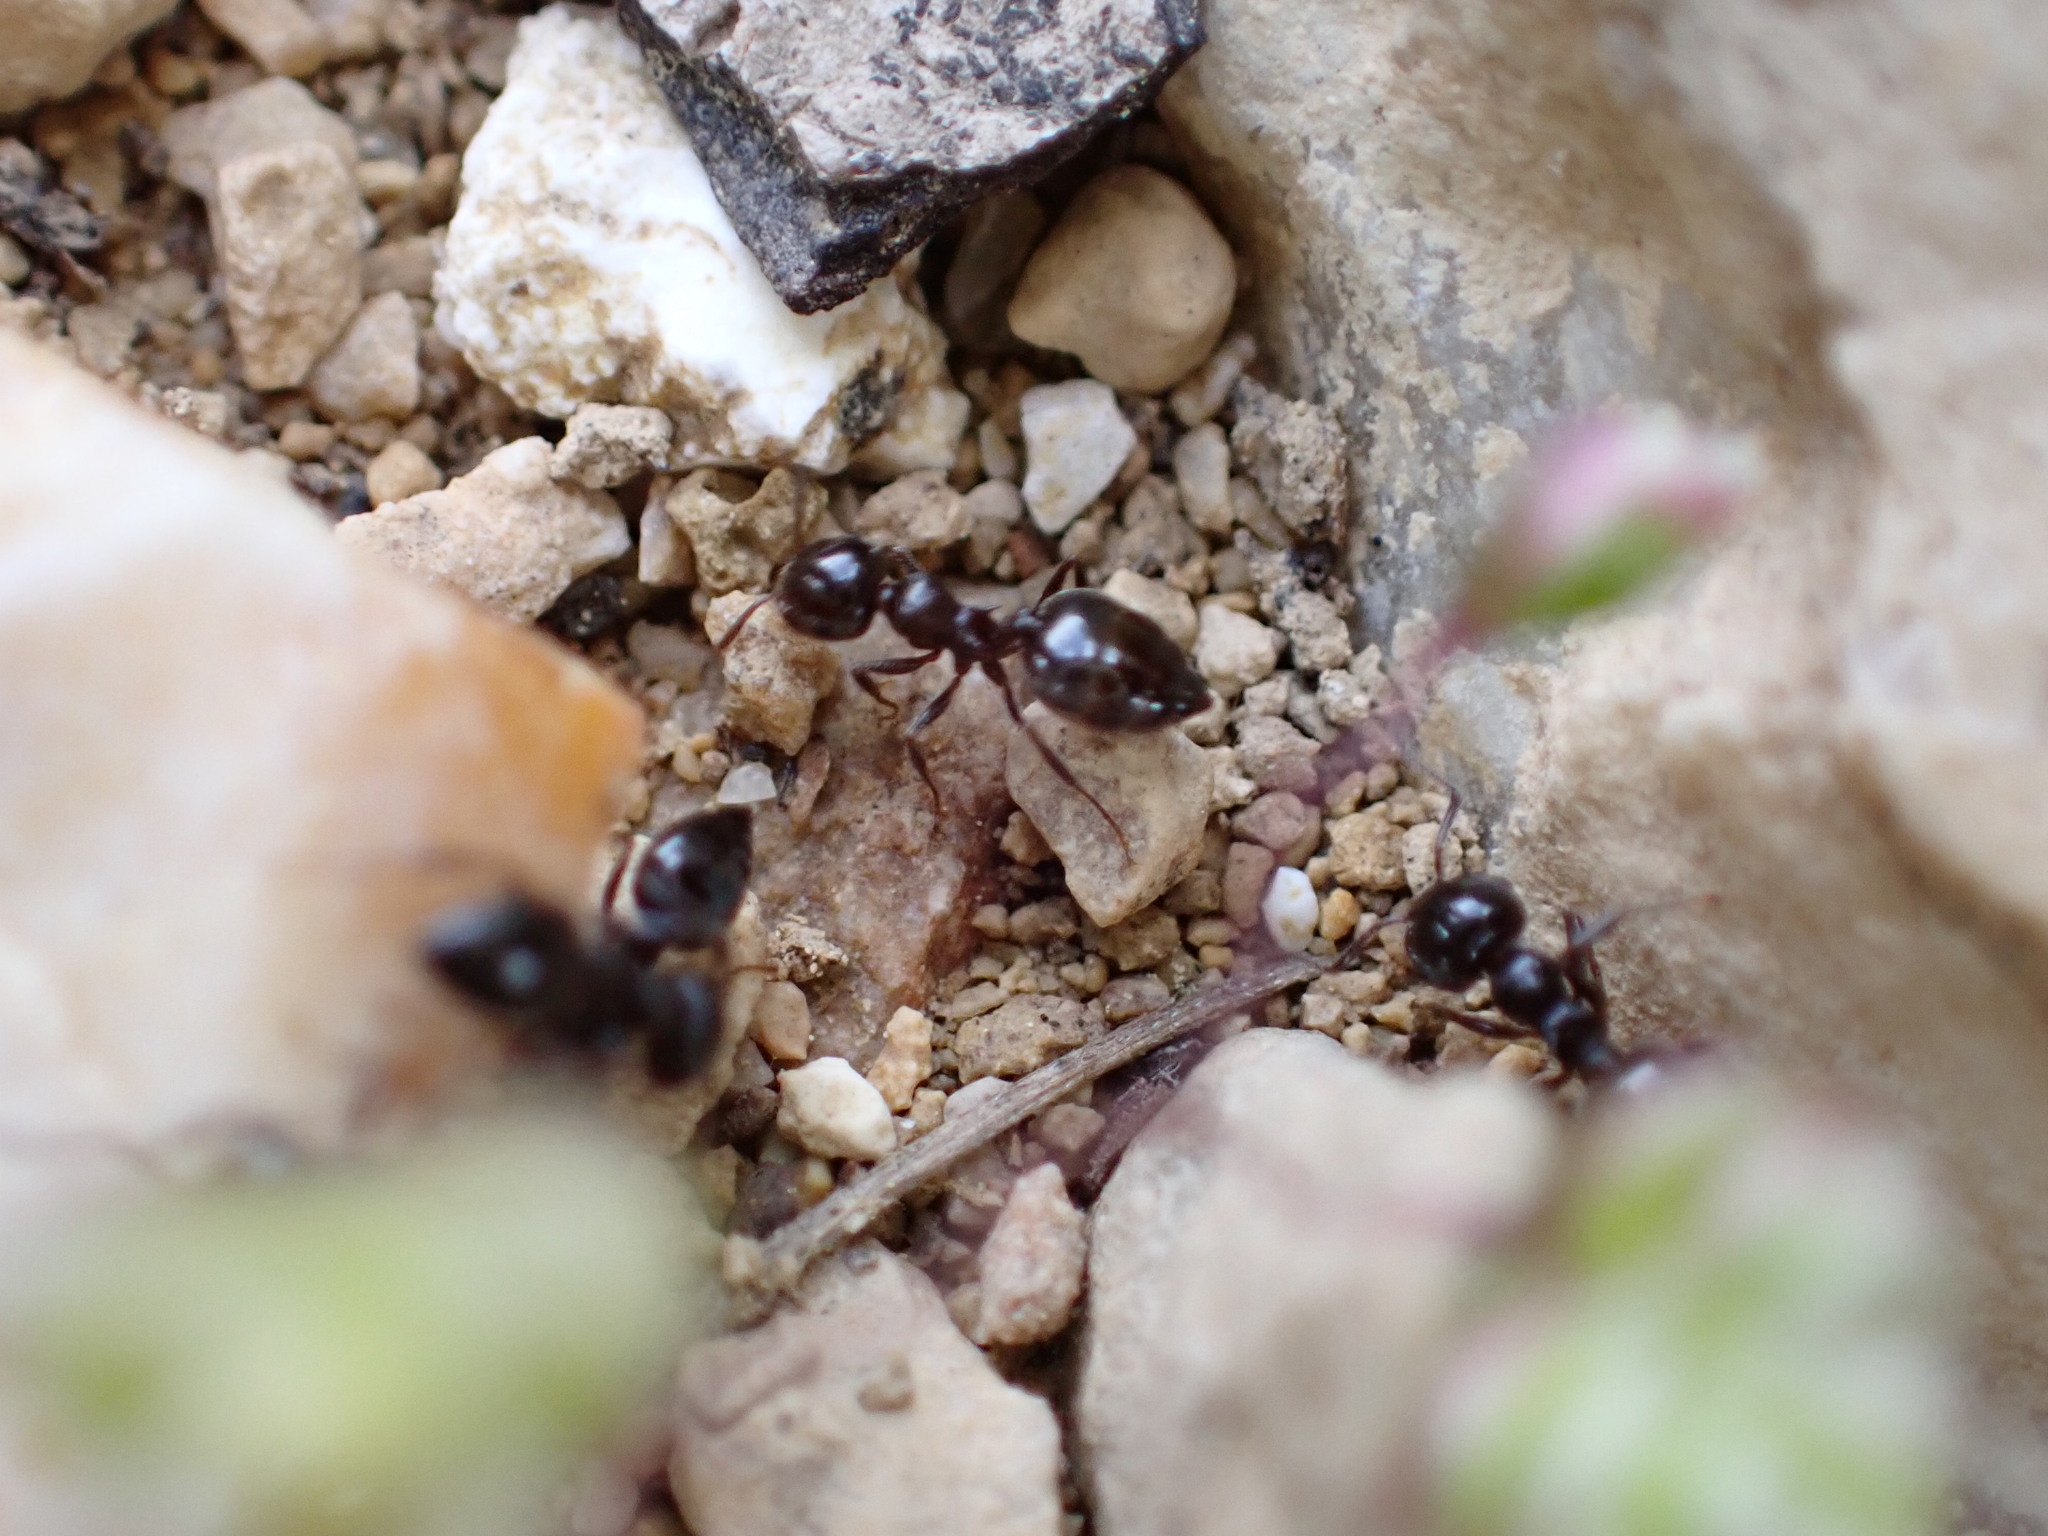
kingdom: Animalia
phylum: Arthropoda
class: Insecta
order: Hymenoptera
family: Formicidae
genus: Crematogaster
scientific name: Crematogaster auberti
